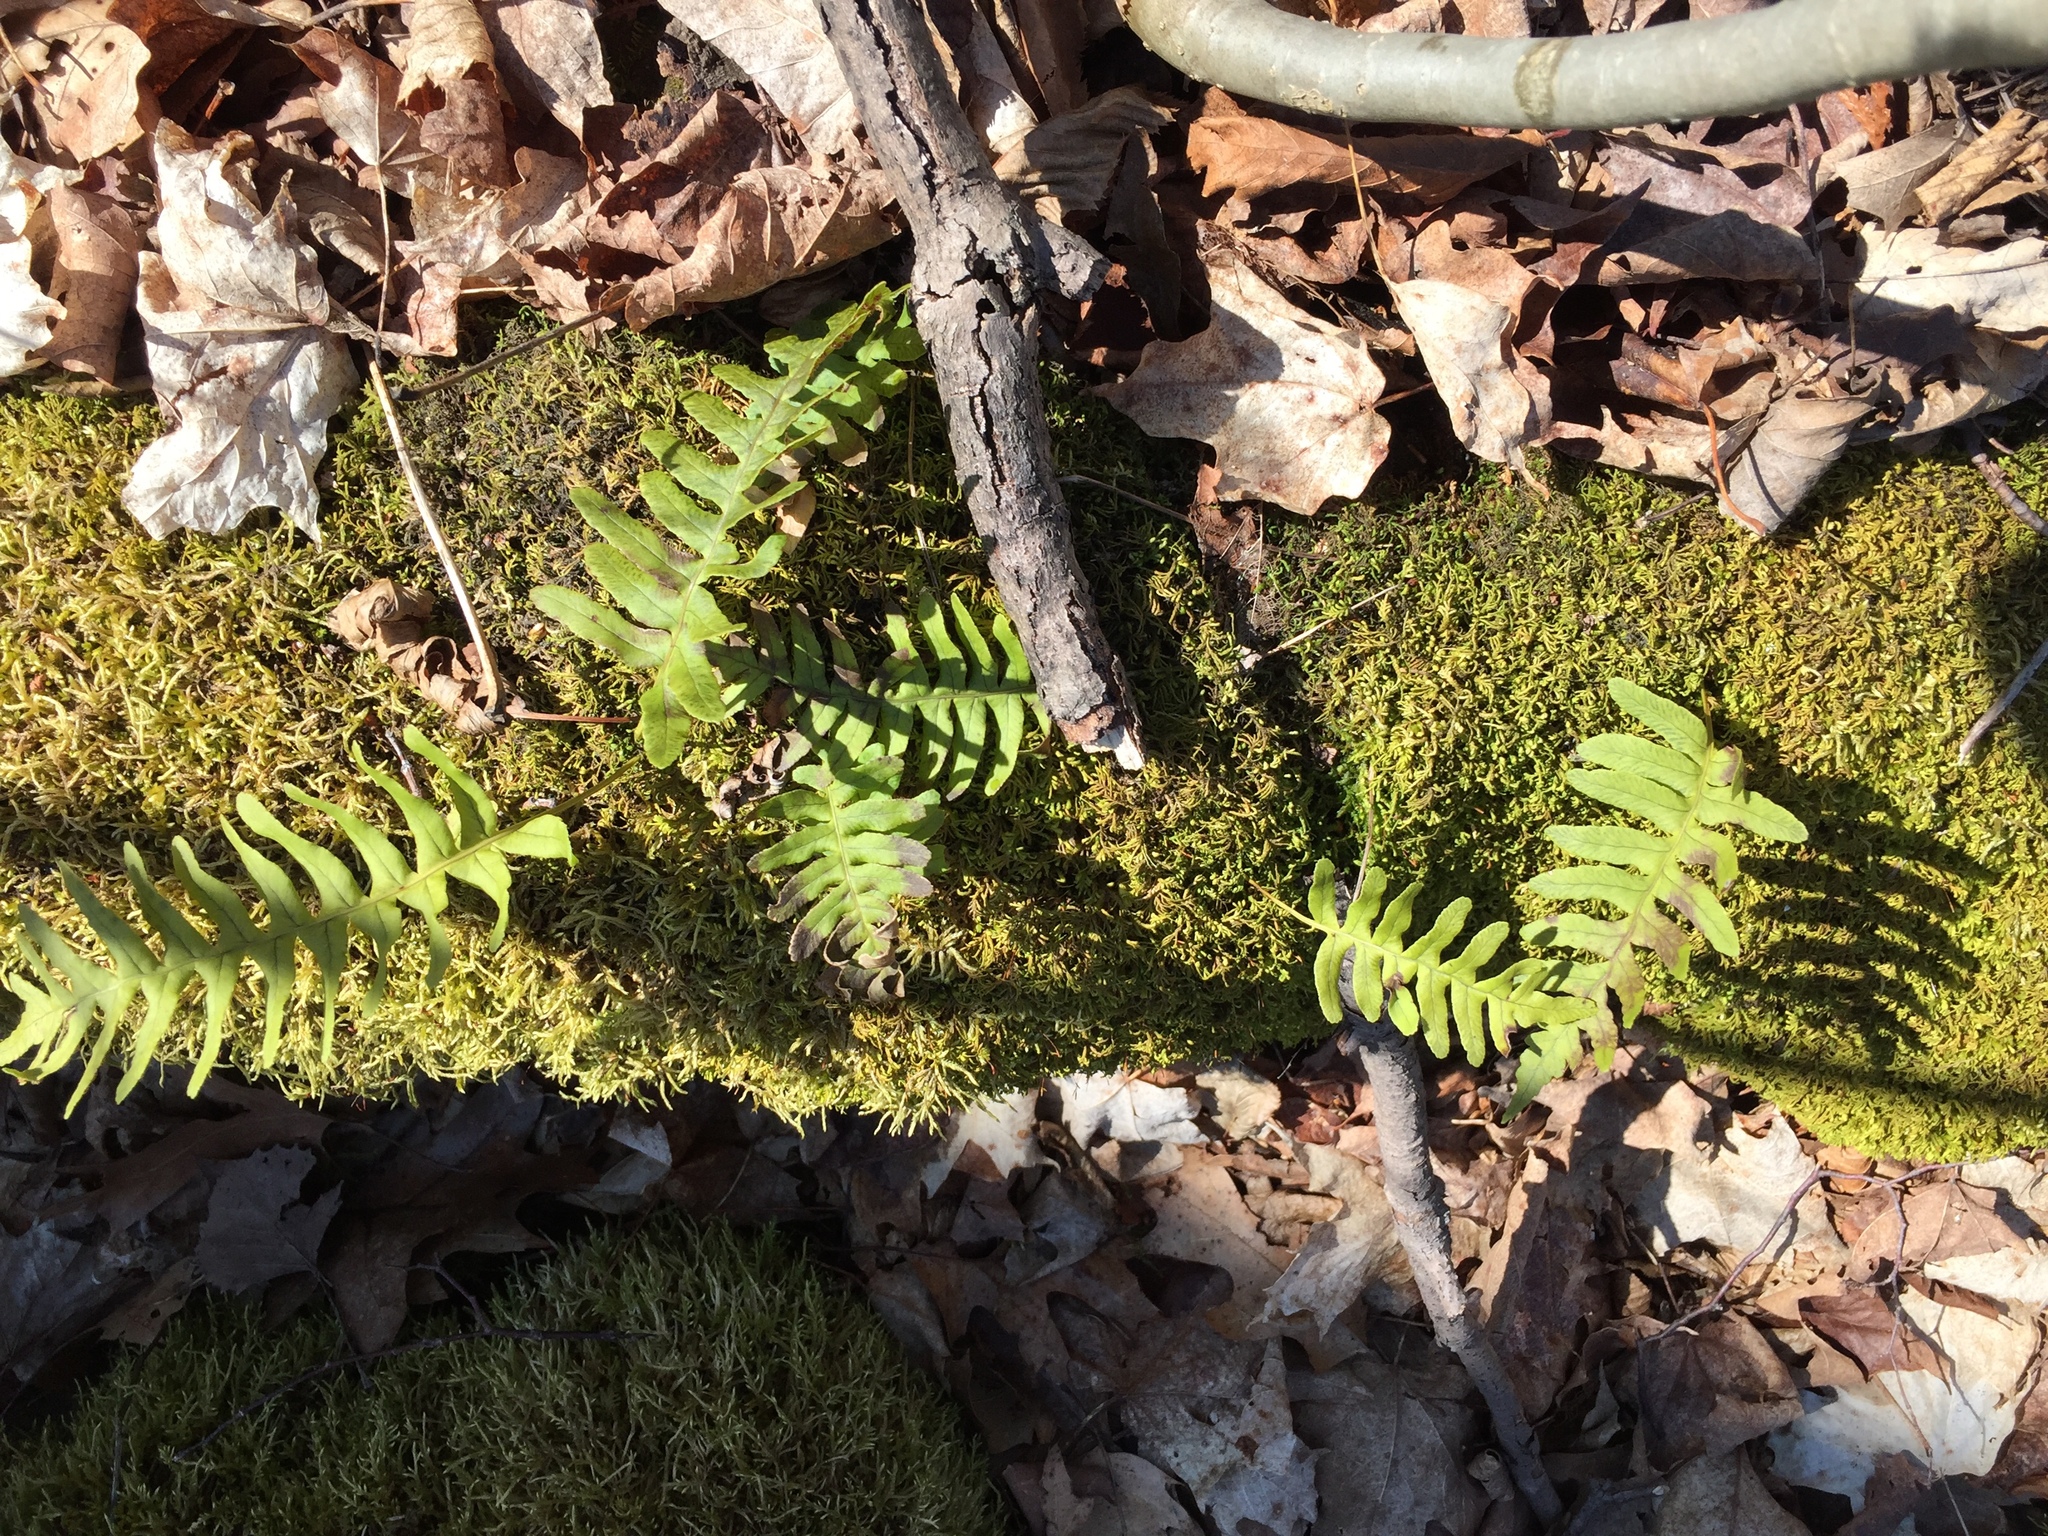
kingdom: Plantae
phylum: Tracheophyta
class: Polypodiopsida
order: Polypodiales
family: Polypodiaceae
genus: Polypodium
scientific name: Polypodium virginianum
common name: American wall fern
